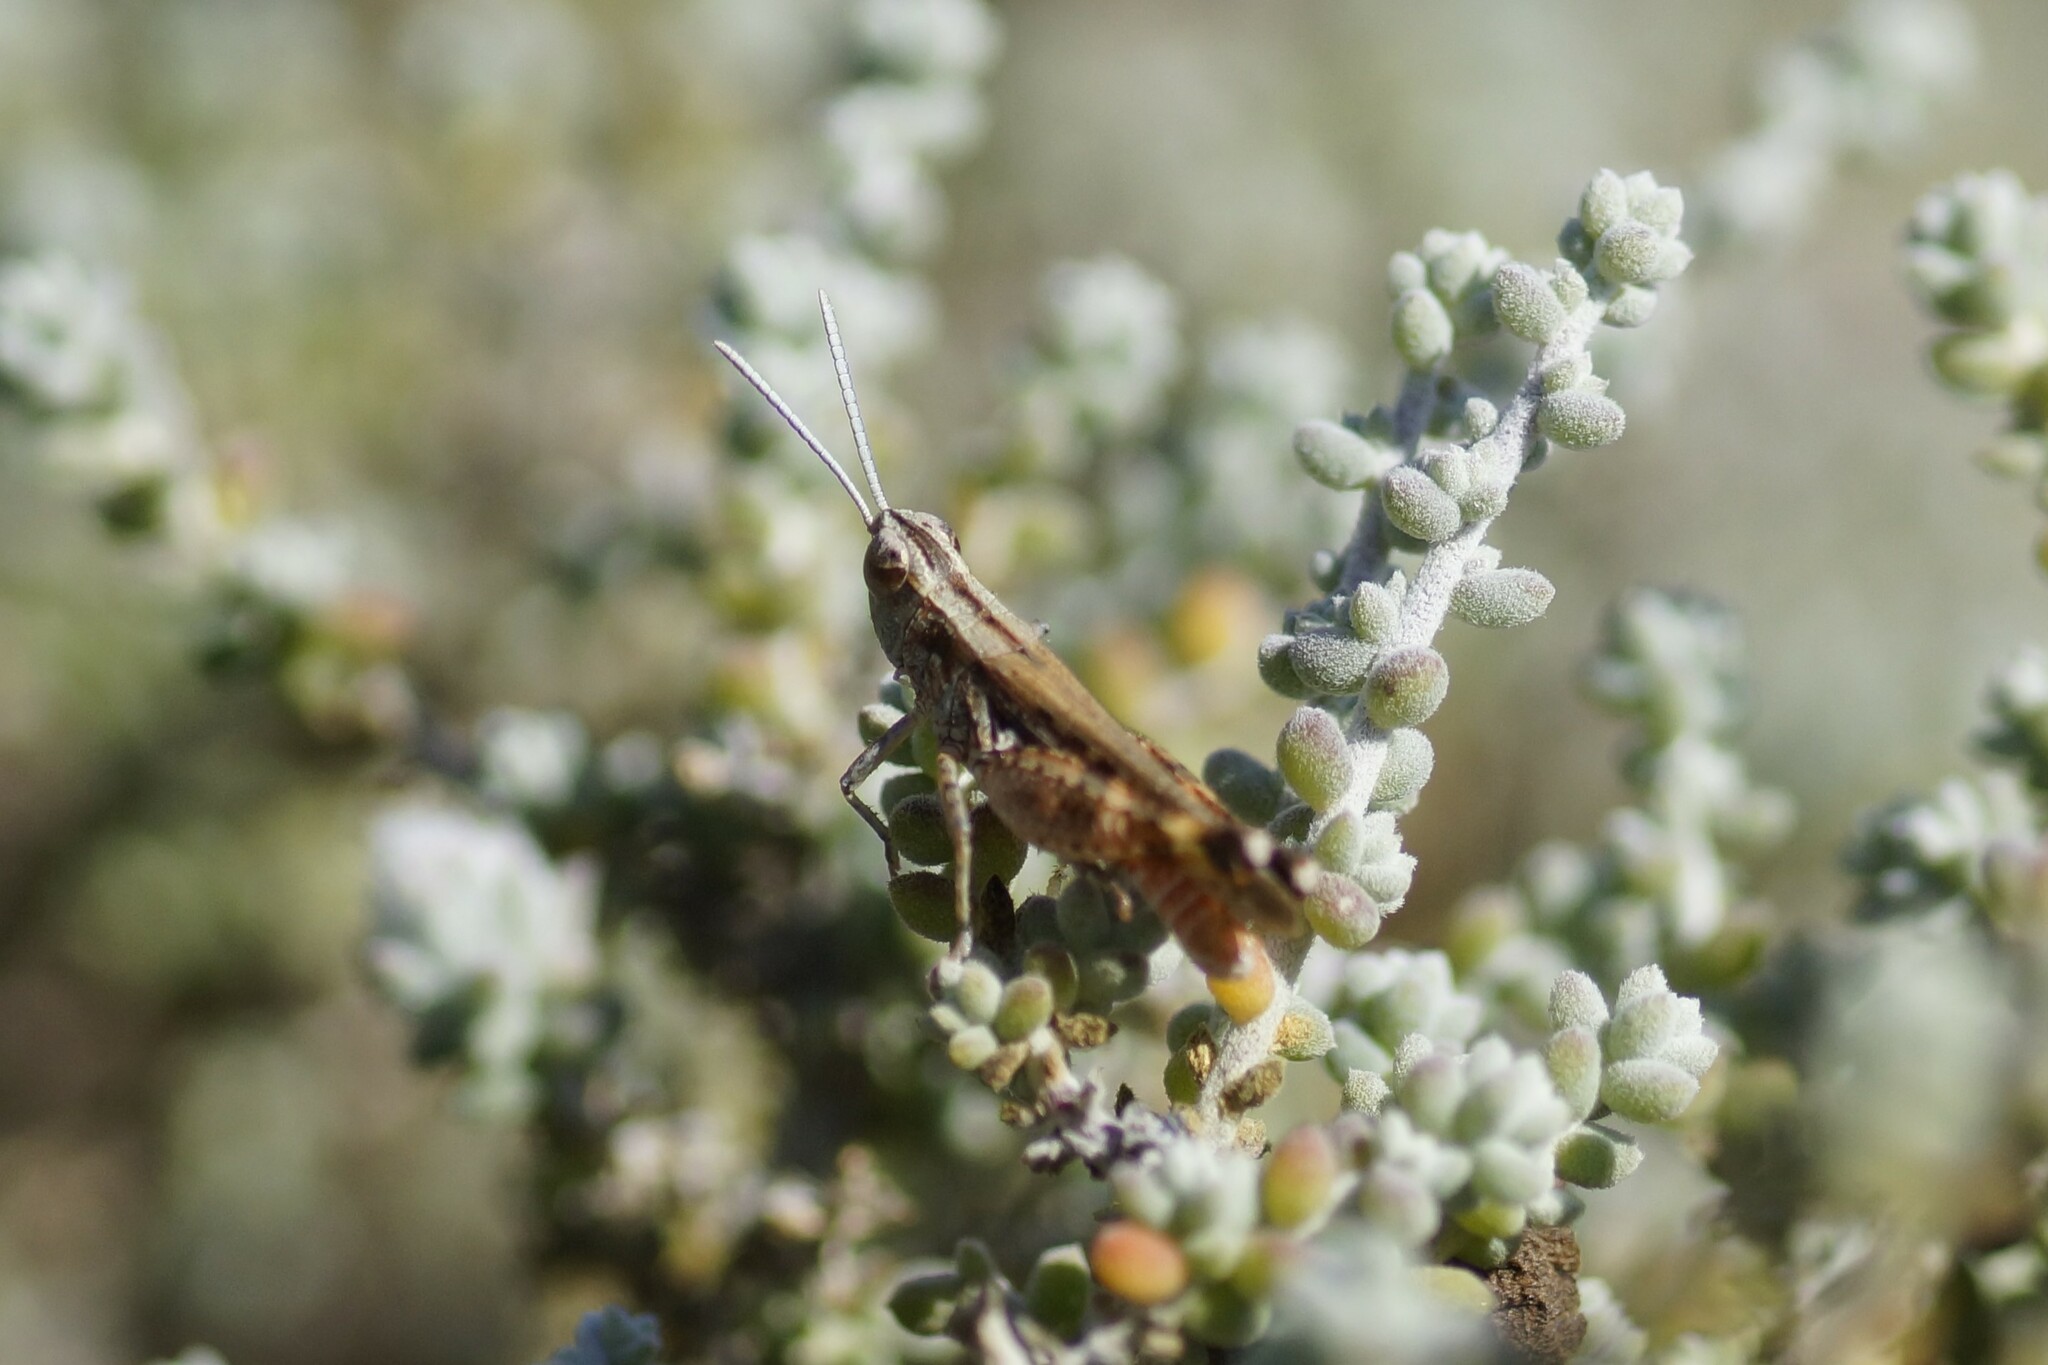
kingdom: Animalia
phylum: Arthropoda
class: Insecta
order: Orthoptera
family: Acrididae
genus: Azelota
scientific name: Azelota
